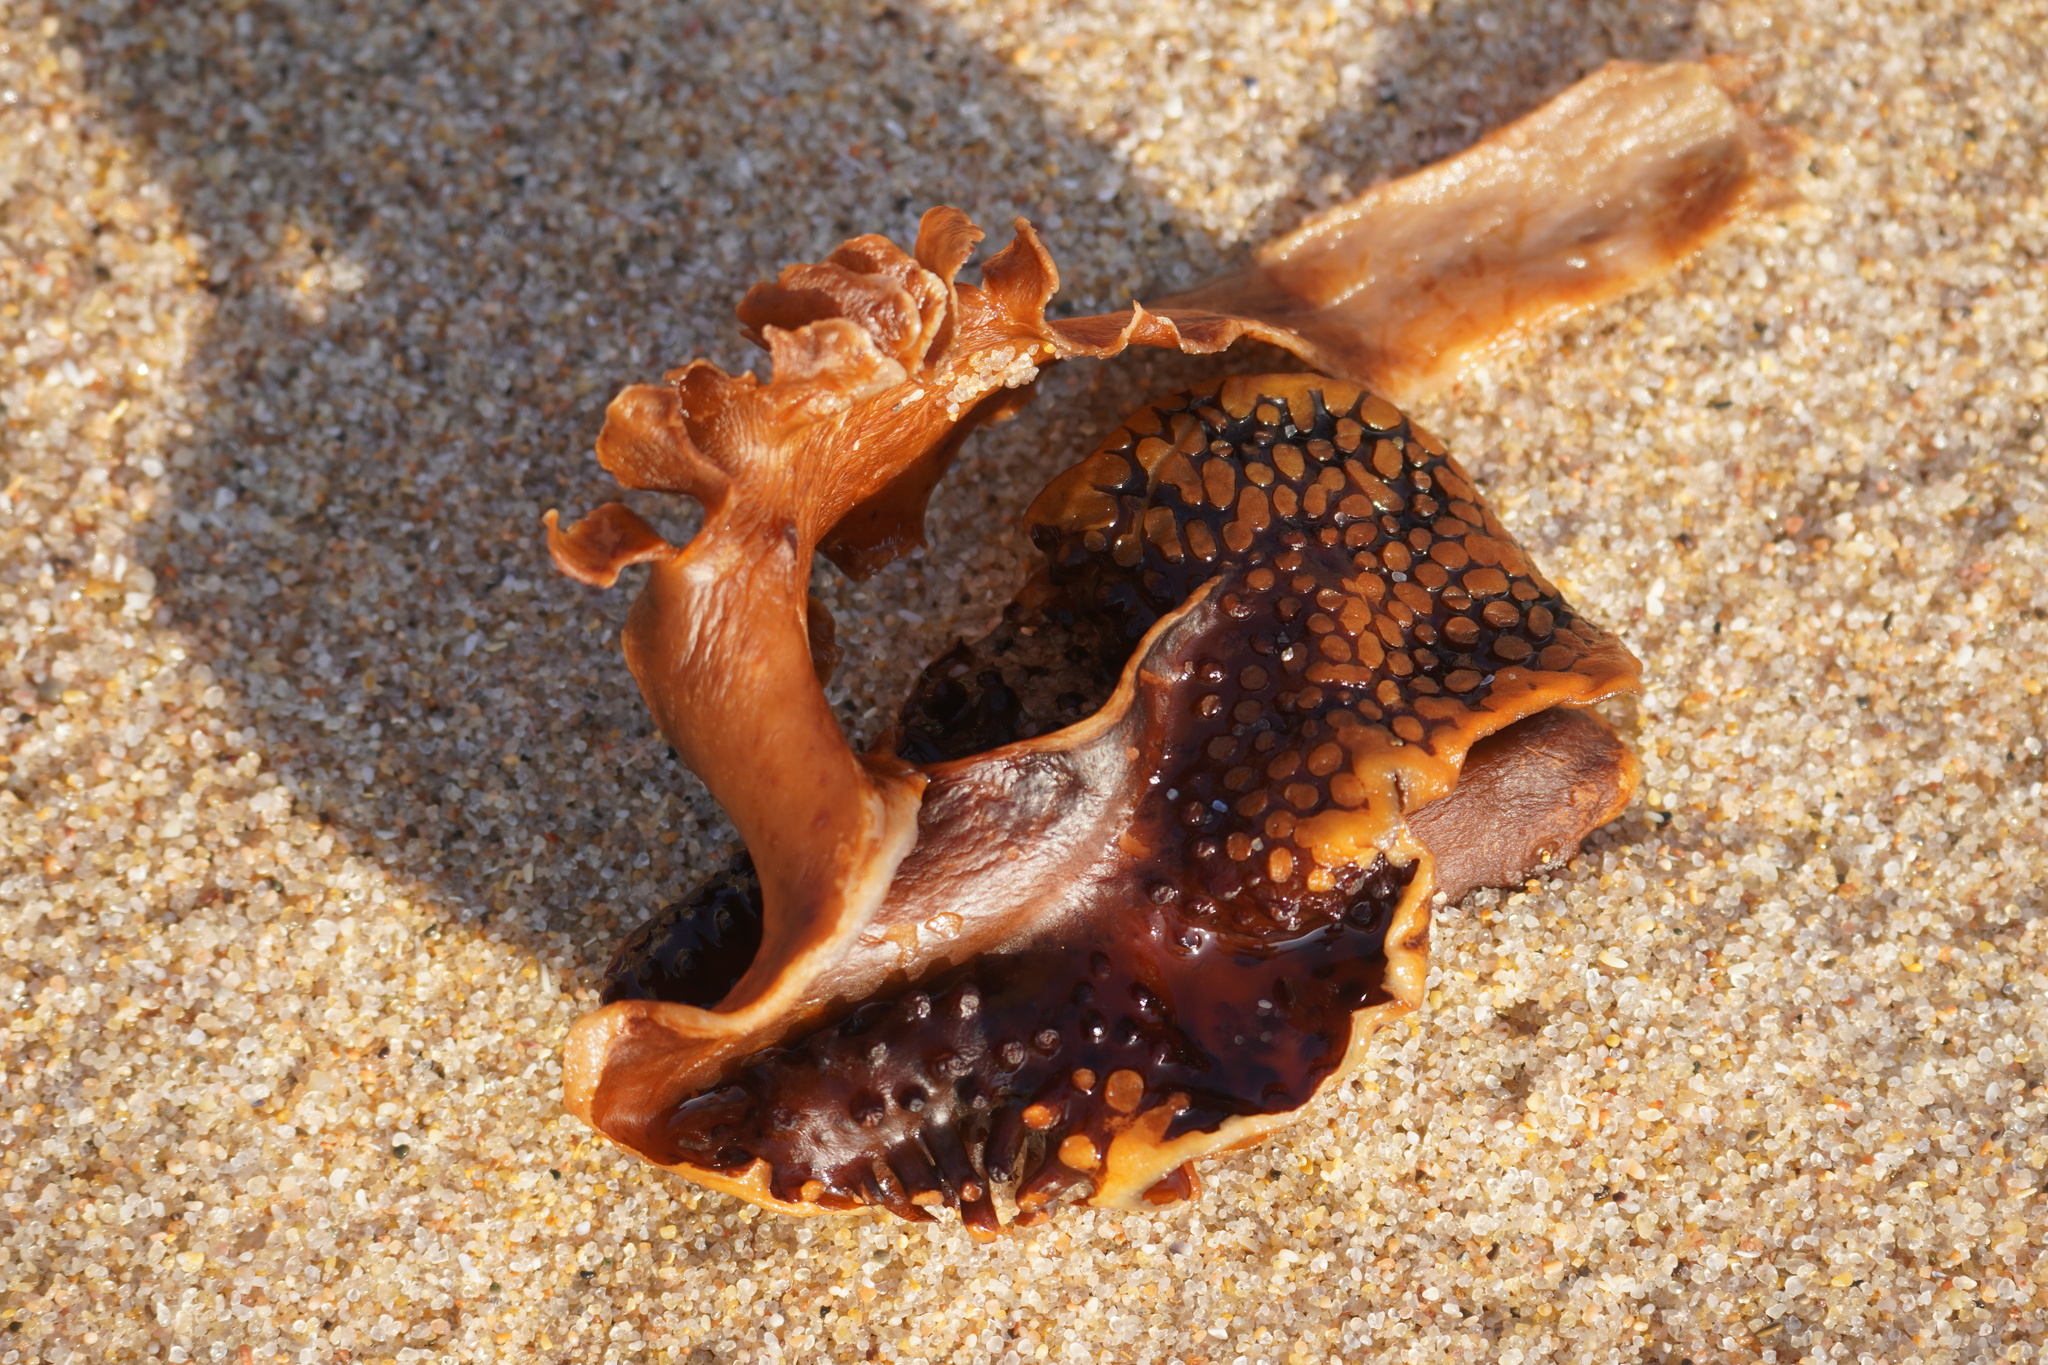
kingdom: Chromista
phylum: Ochrophyta
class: Phaeophyceae
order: Tilopteridales
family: Phyllariaceae
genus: Saccorhiza
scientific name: Saccorhiza polyschides
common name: Furbelows
